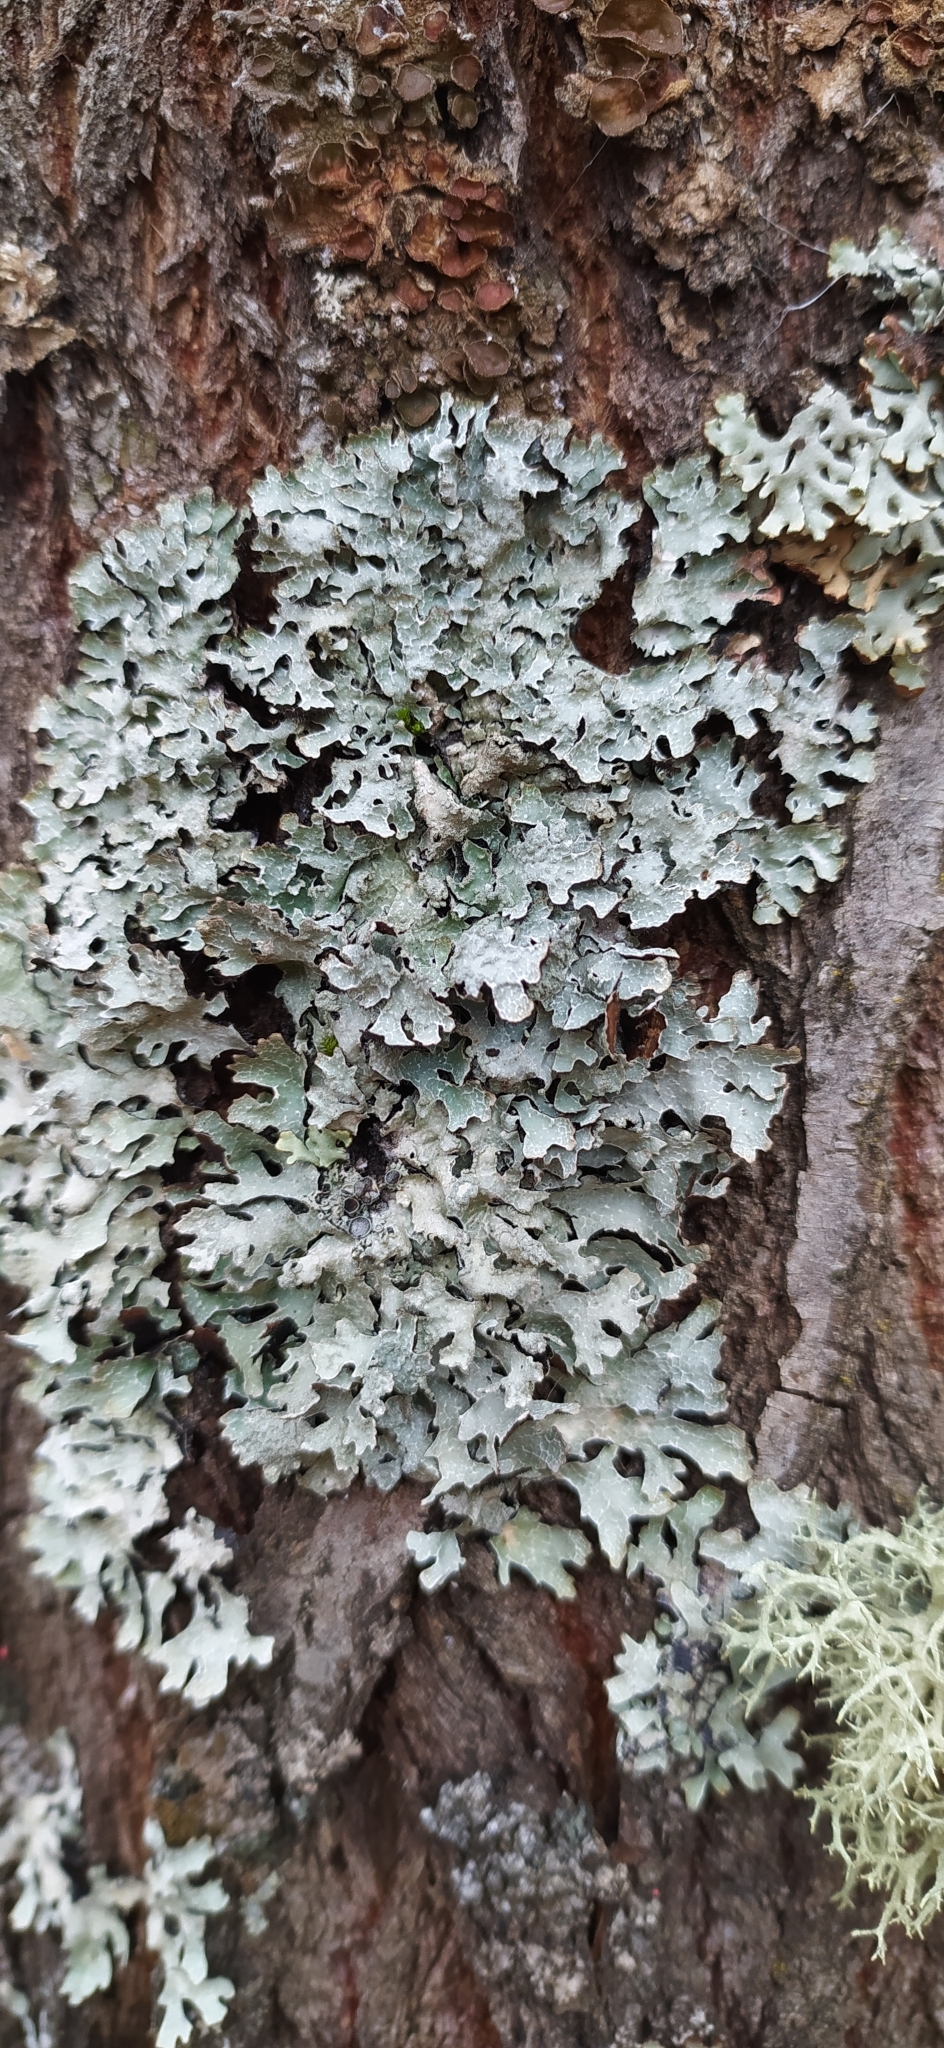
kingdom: Fungi
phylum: Ascomycota
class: Lecanoromycetes
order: Lecanorales
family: Parmeliaceae
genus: Parmelia
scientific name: Parmelia sulcata
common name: Netted shield lichen
